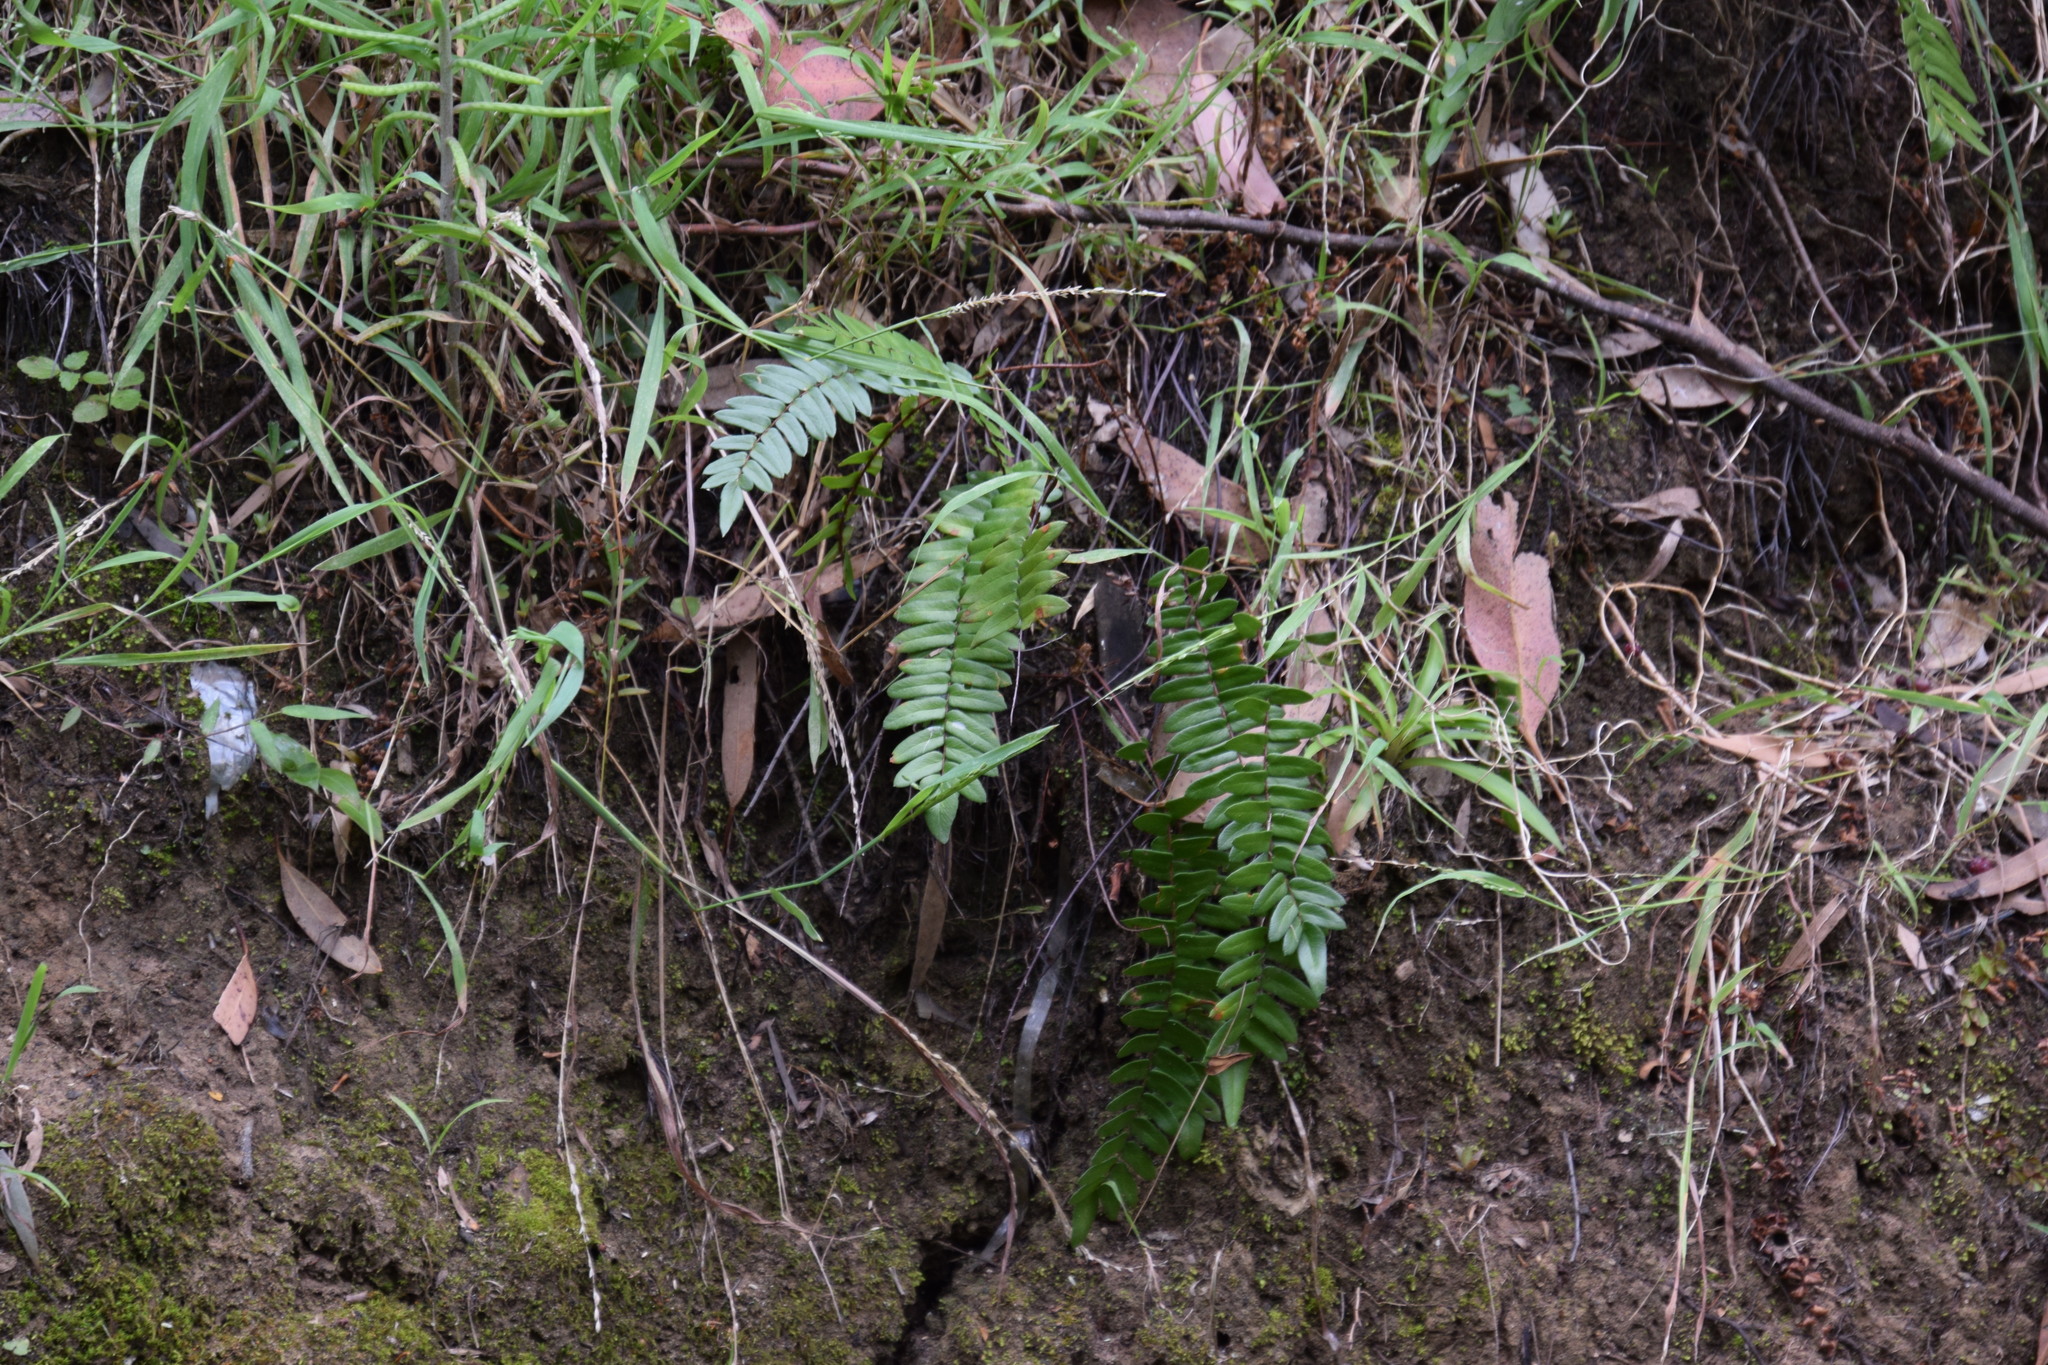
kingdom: Plantae
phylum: Tracheophyta
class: Polypodiopsida
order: Polypodiales
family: Pteridaceae
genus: Pellaea
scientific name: Pellaea falcata
